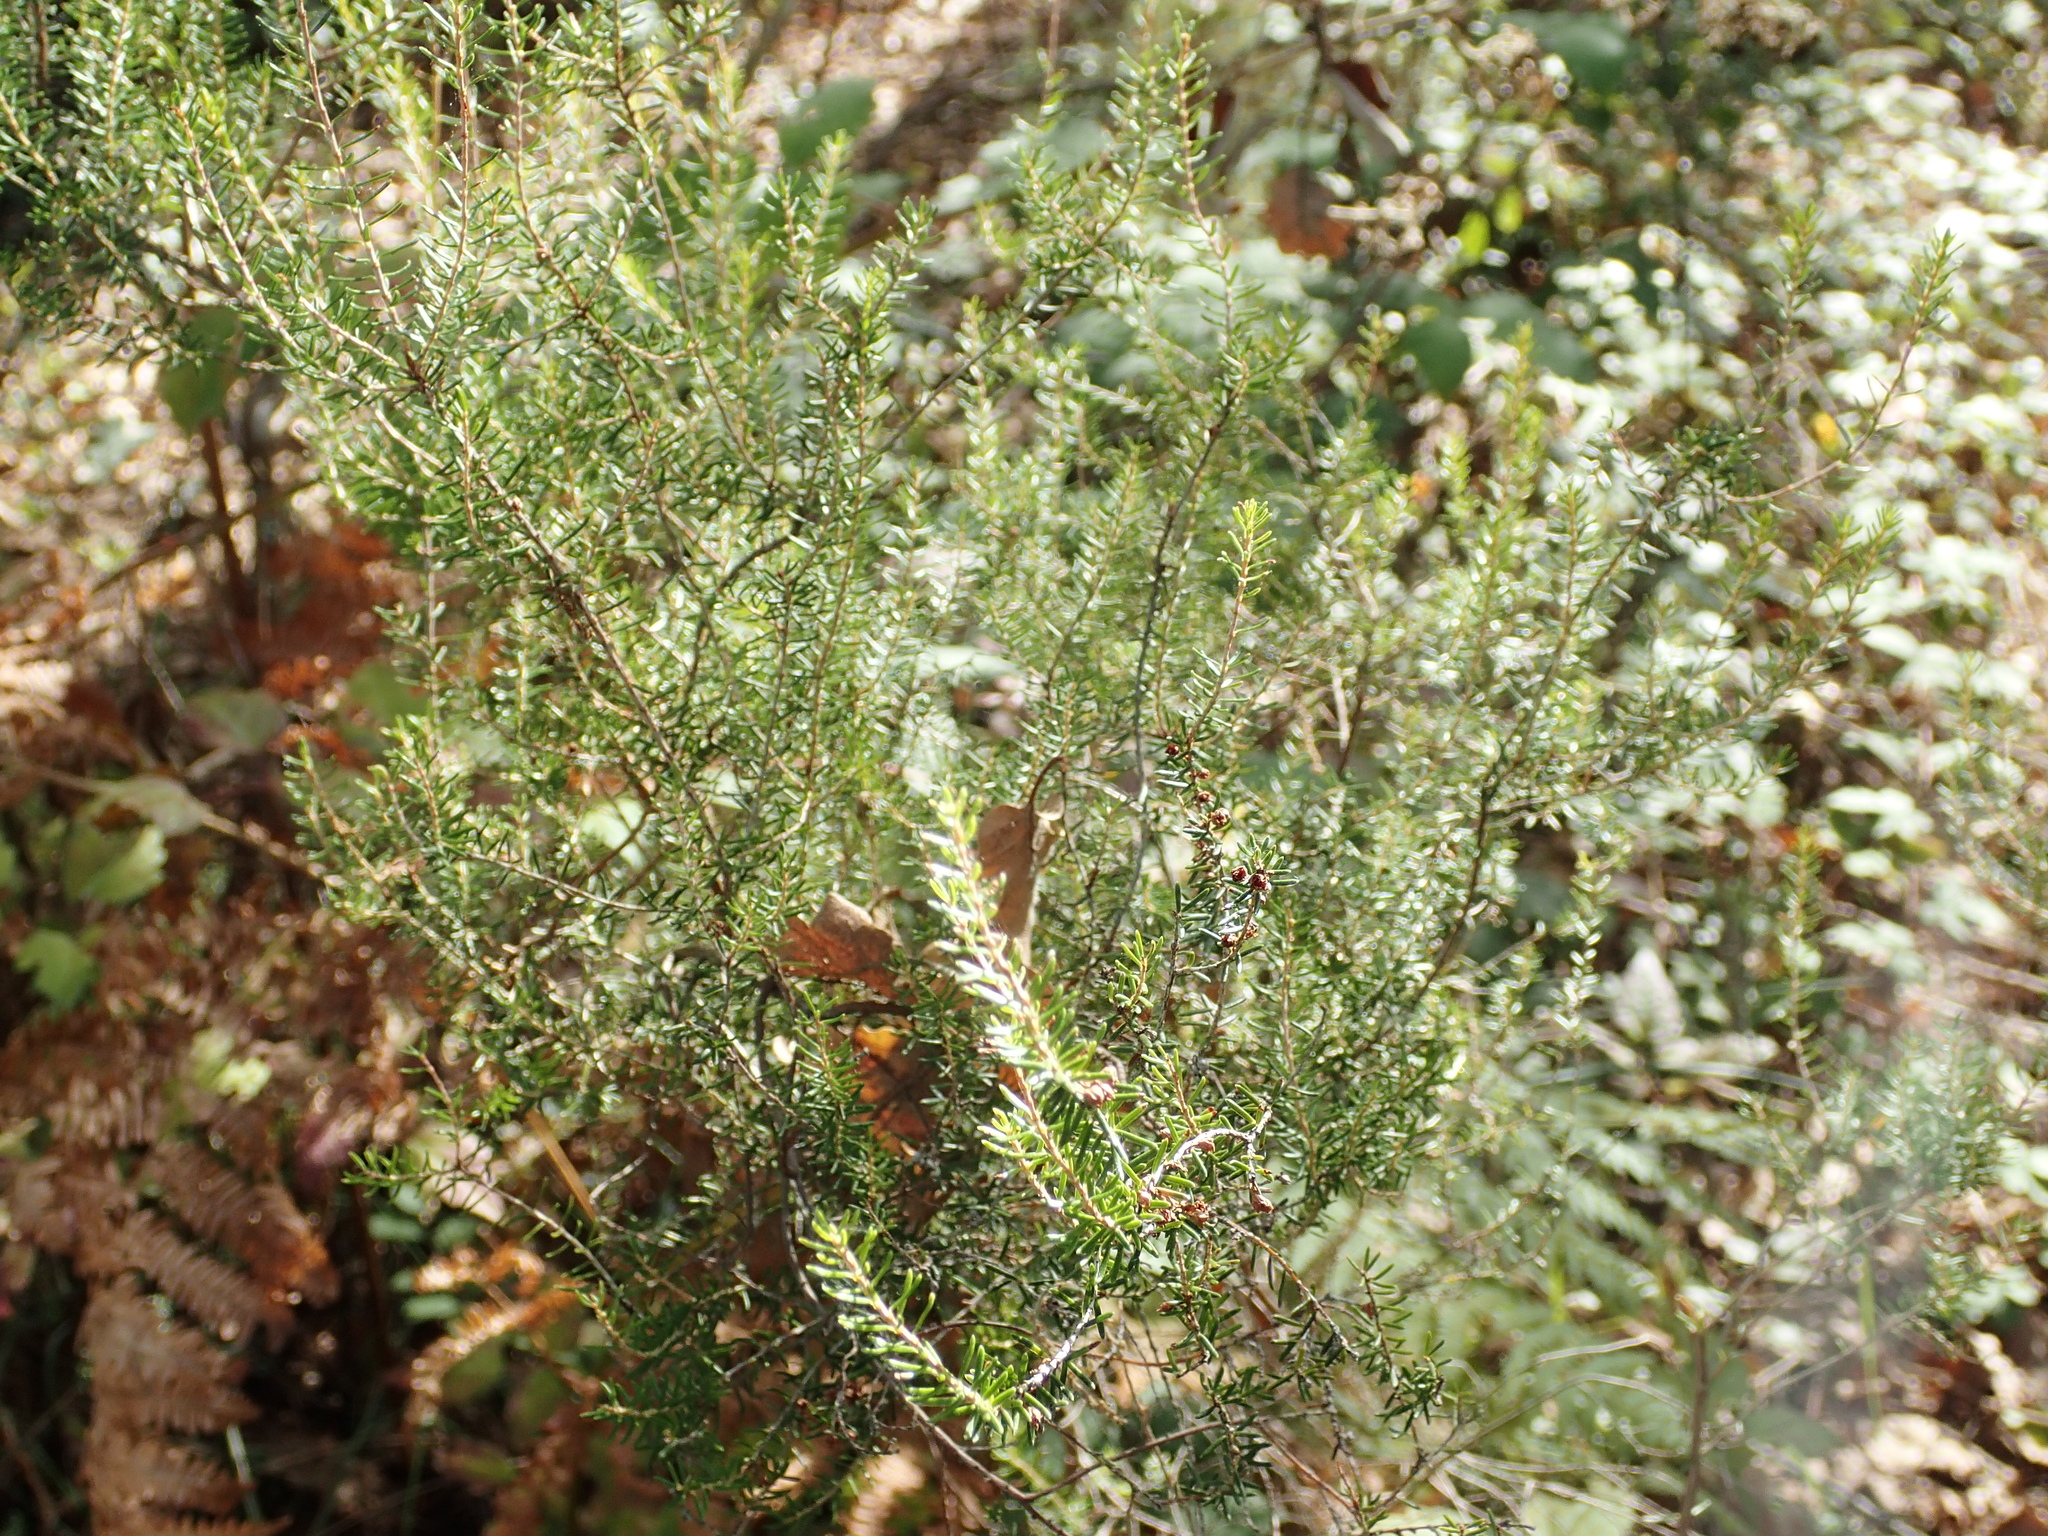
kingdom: Plantae
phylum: Tracheophyta
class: Magnoliopsida
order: Ericales
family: Ericaceae
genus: Erica
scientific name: Erica scoparia
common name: Green heather
